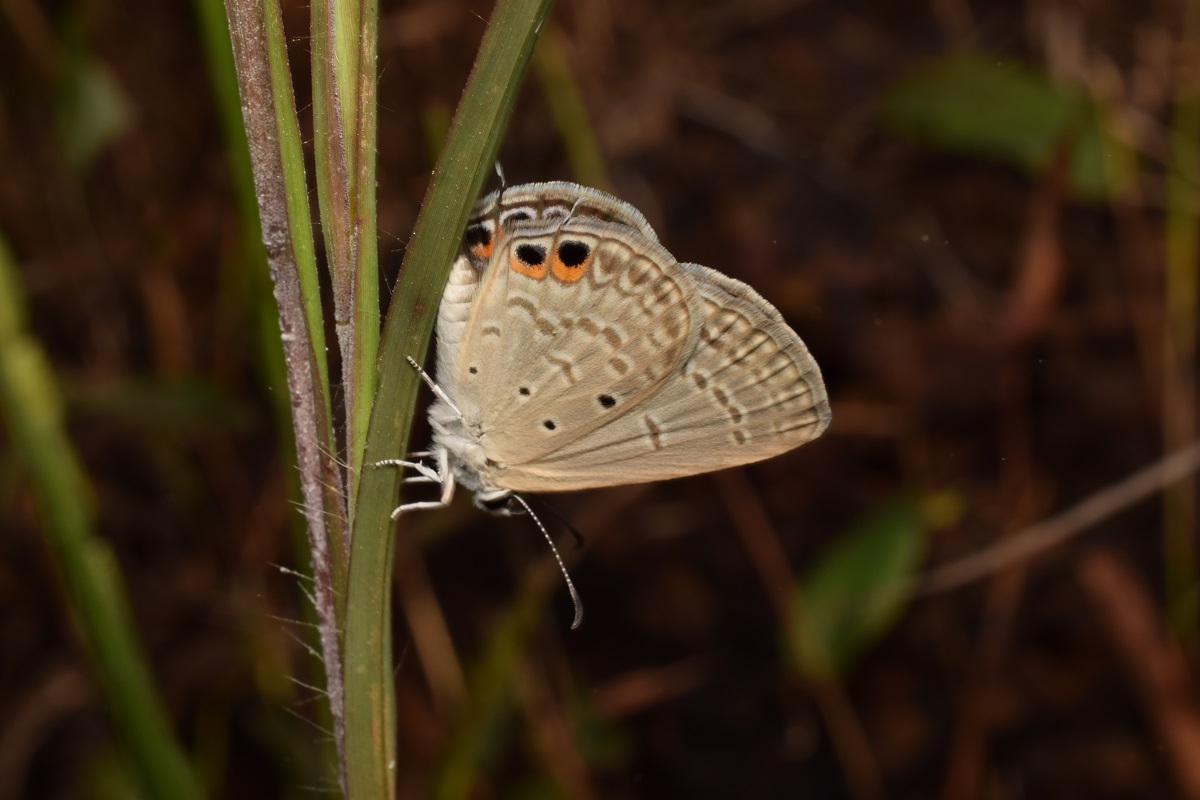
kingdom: Animalia
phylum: Arthropoda
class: Insecta
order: Lepidoptera
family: Lycaenidae
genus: Euchrysops
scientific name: Euchrysops cnejus
